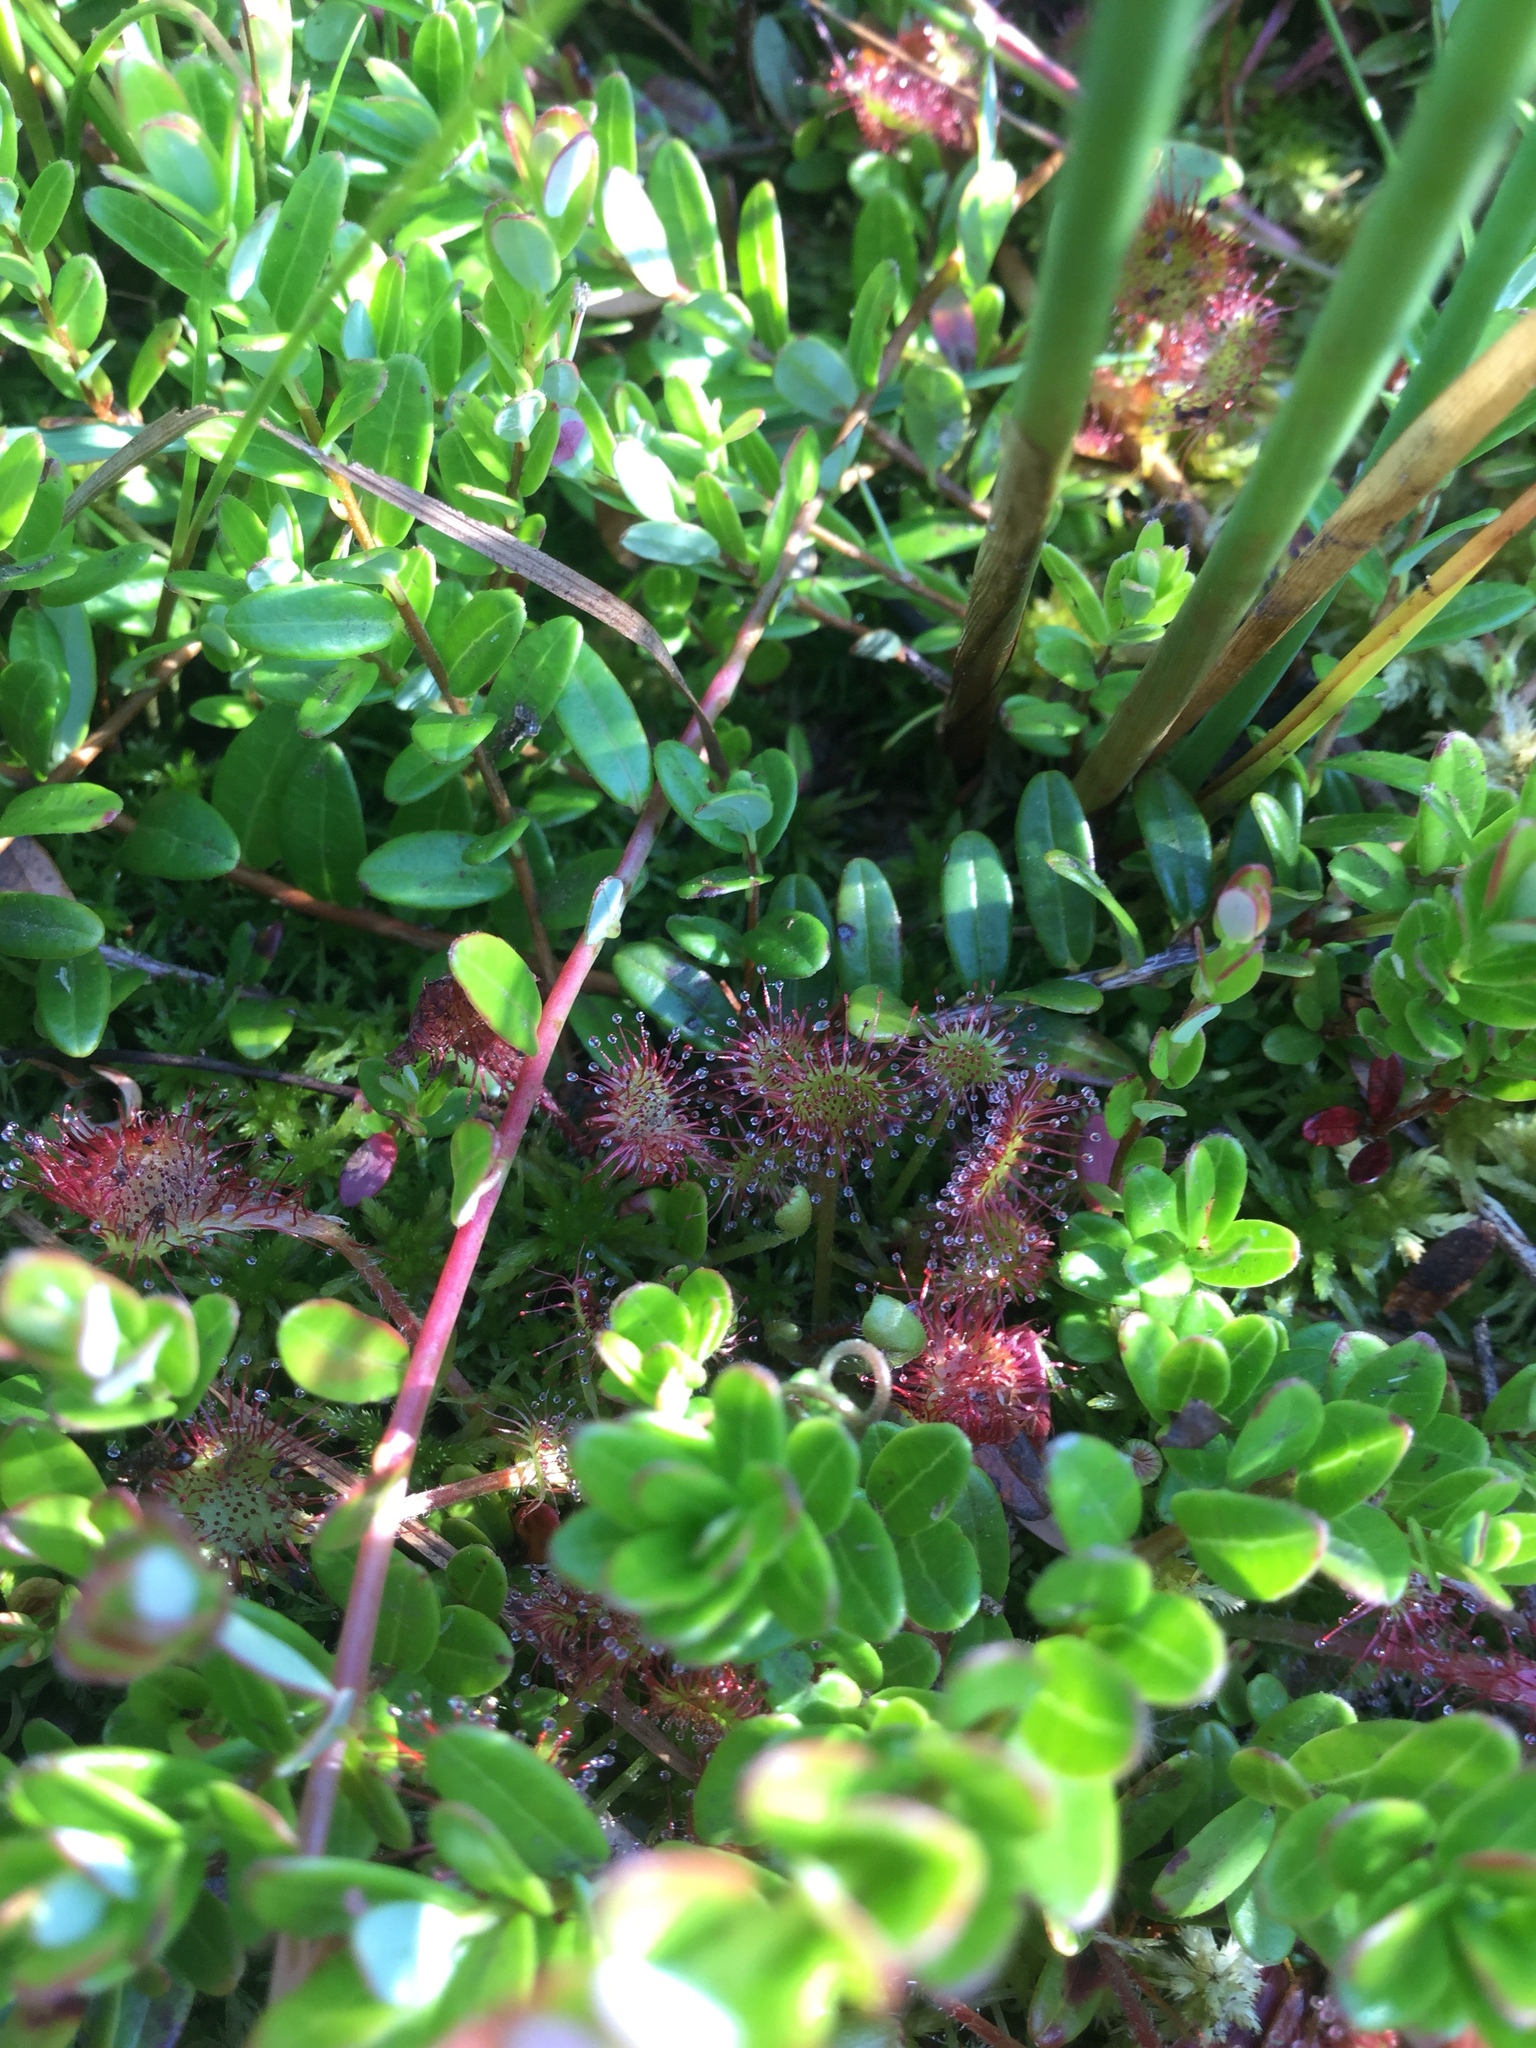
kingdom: Plantae
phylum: Tracheophyta
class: Magnoliopsida
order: Caryophyllales
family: Droseraceae
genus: Drosera
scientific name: Drosera rotundifolia
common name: Round-leaved sundew
